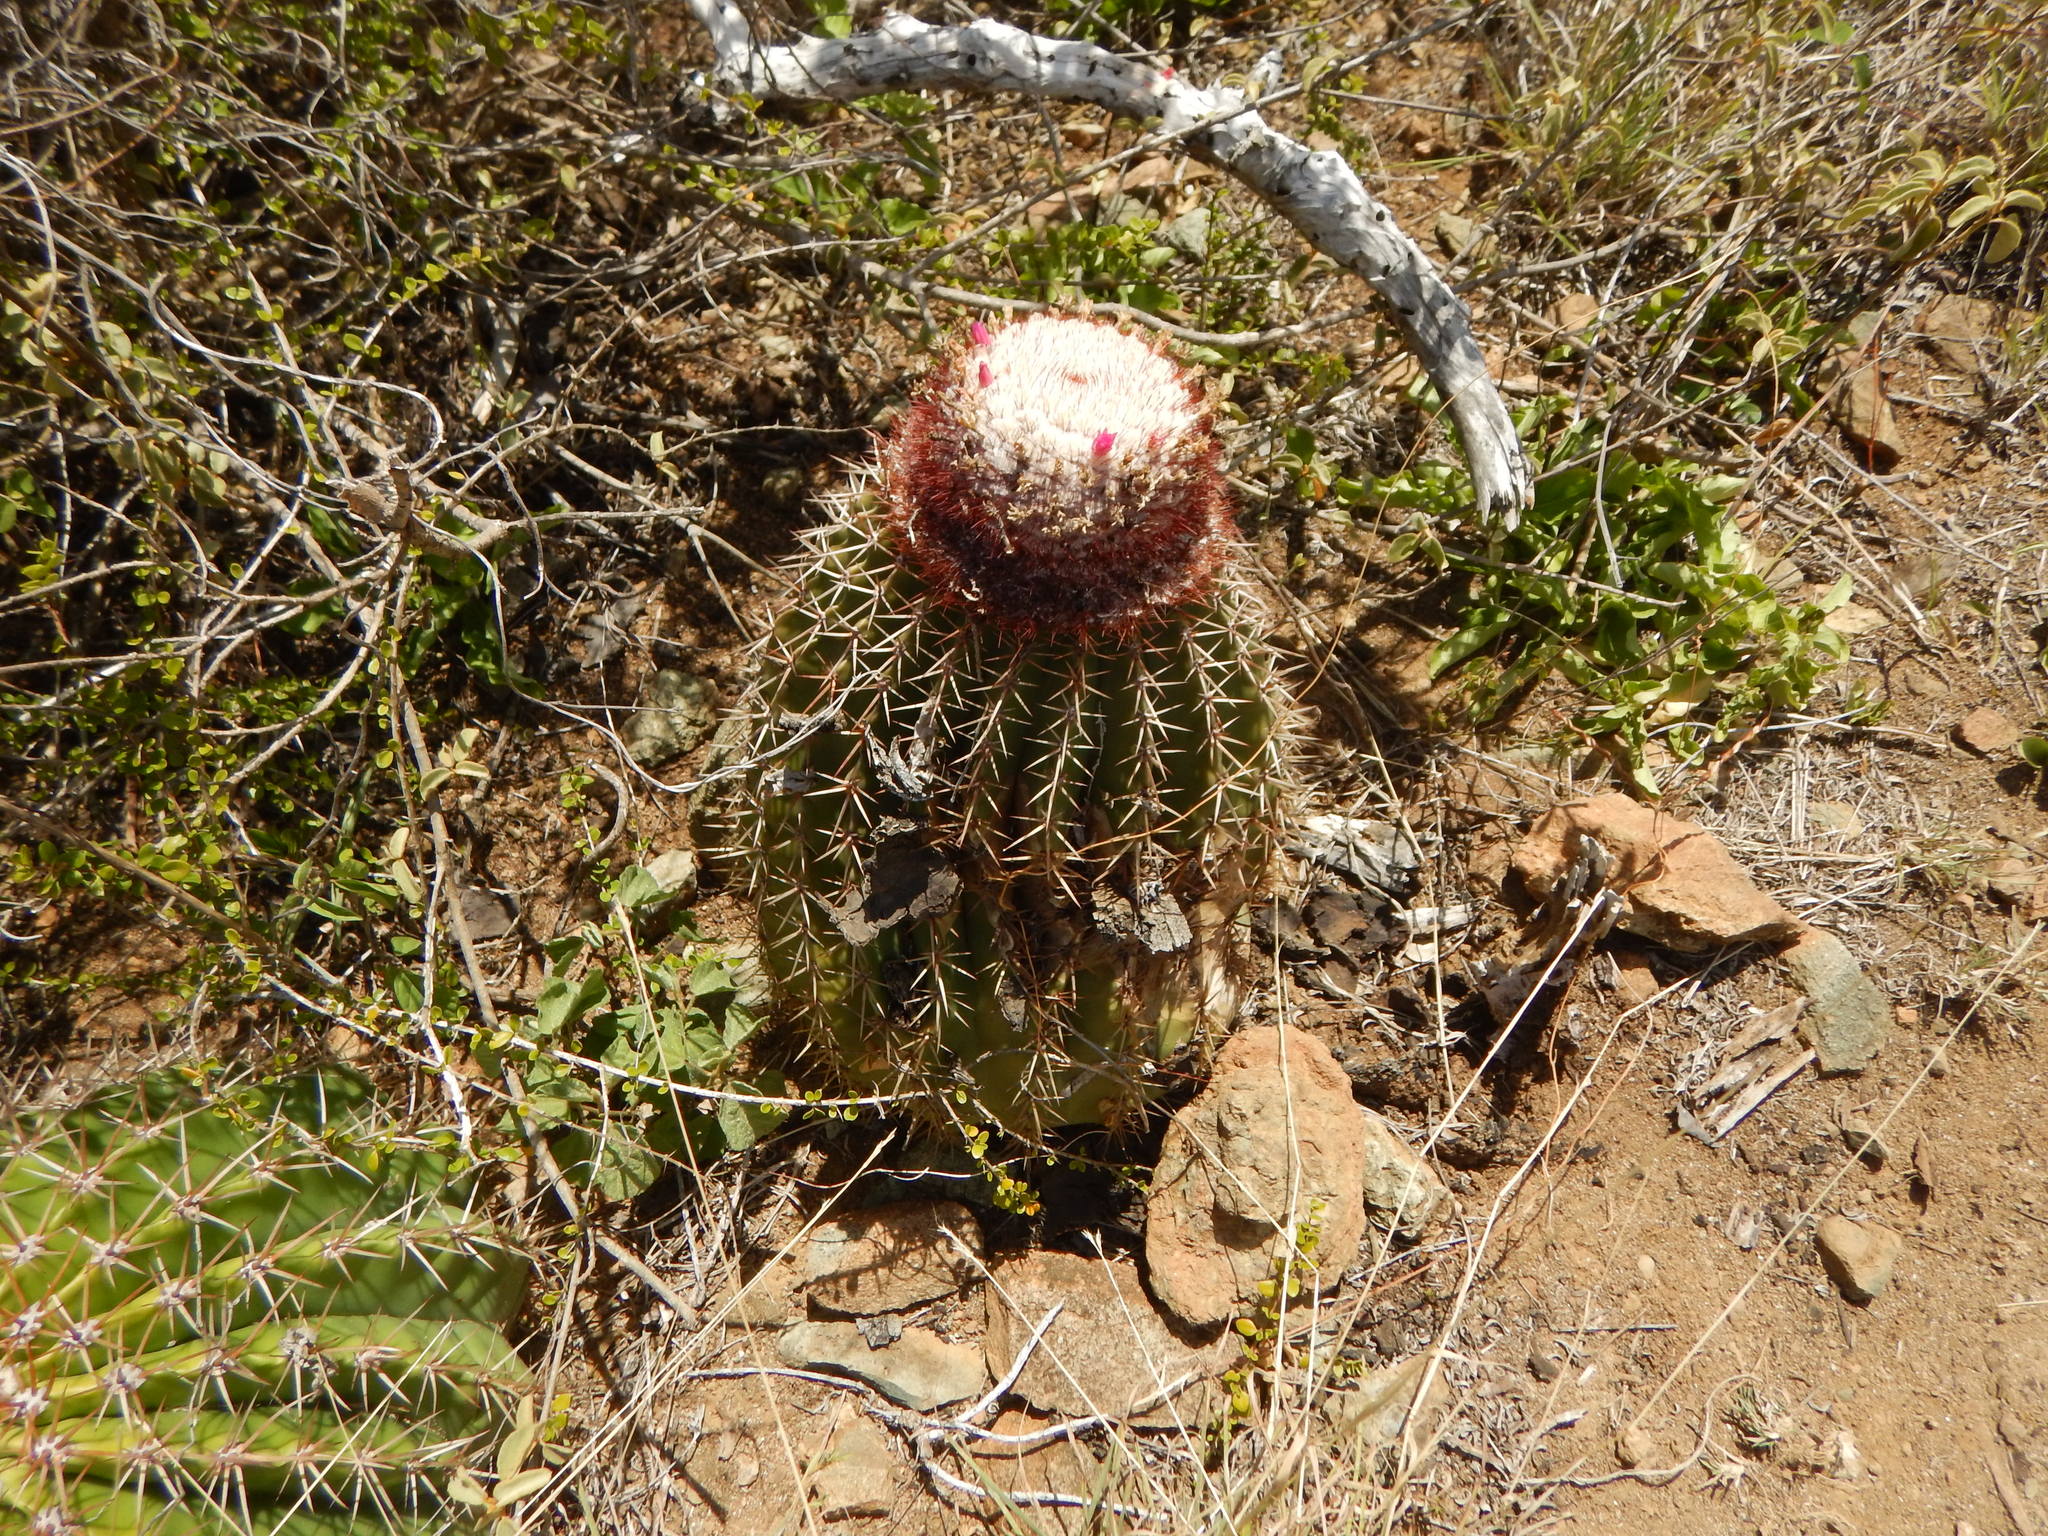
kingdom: Plantae
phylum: Tracheophyta
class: Magnoliopsida
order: Caryophyllales
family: Cactaceae
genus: Melocactus
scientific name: Melocactus intortus
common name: Barrel cactus
